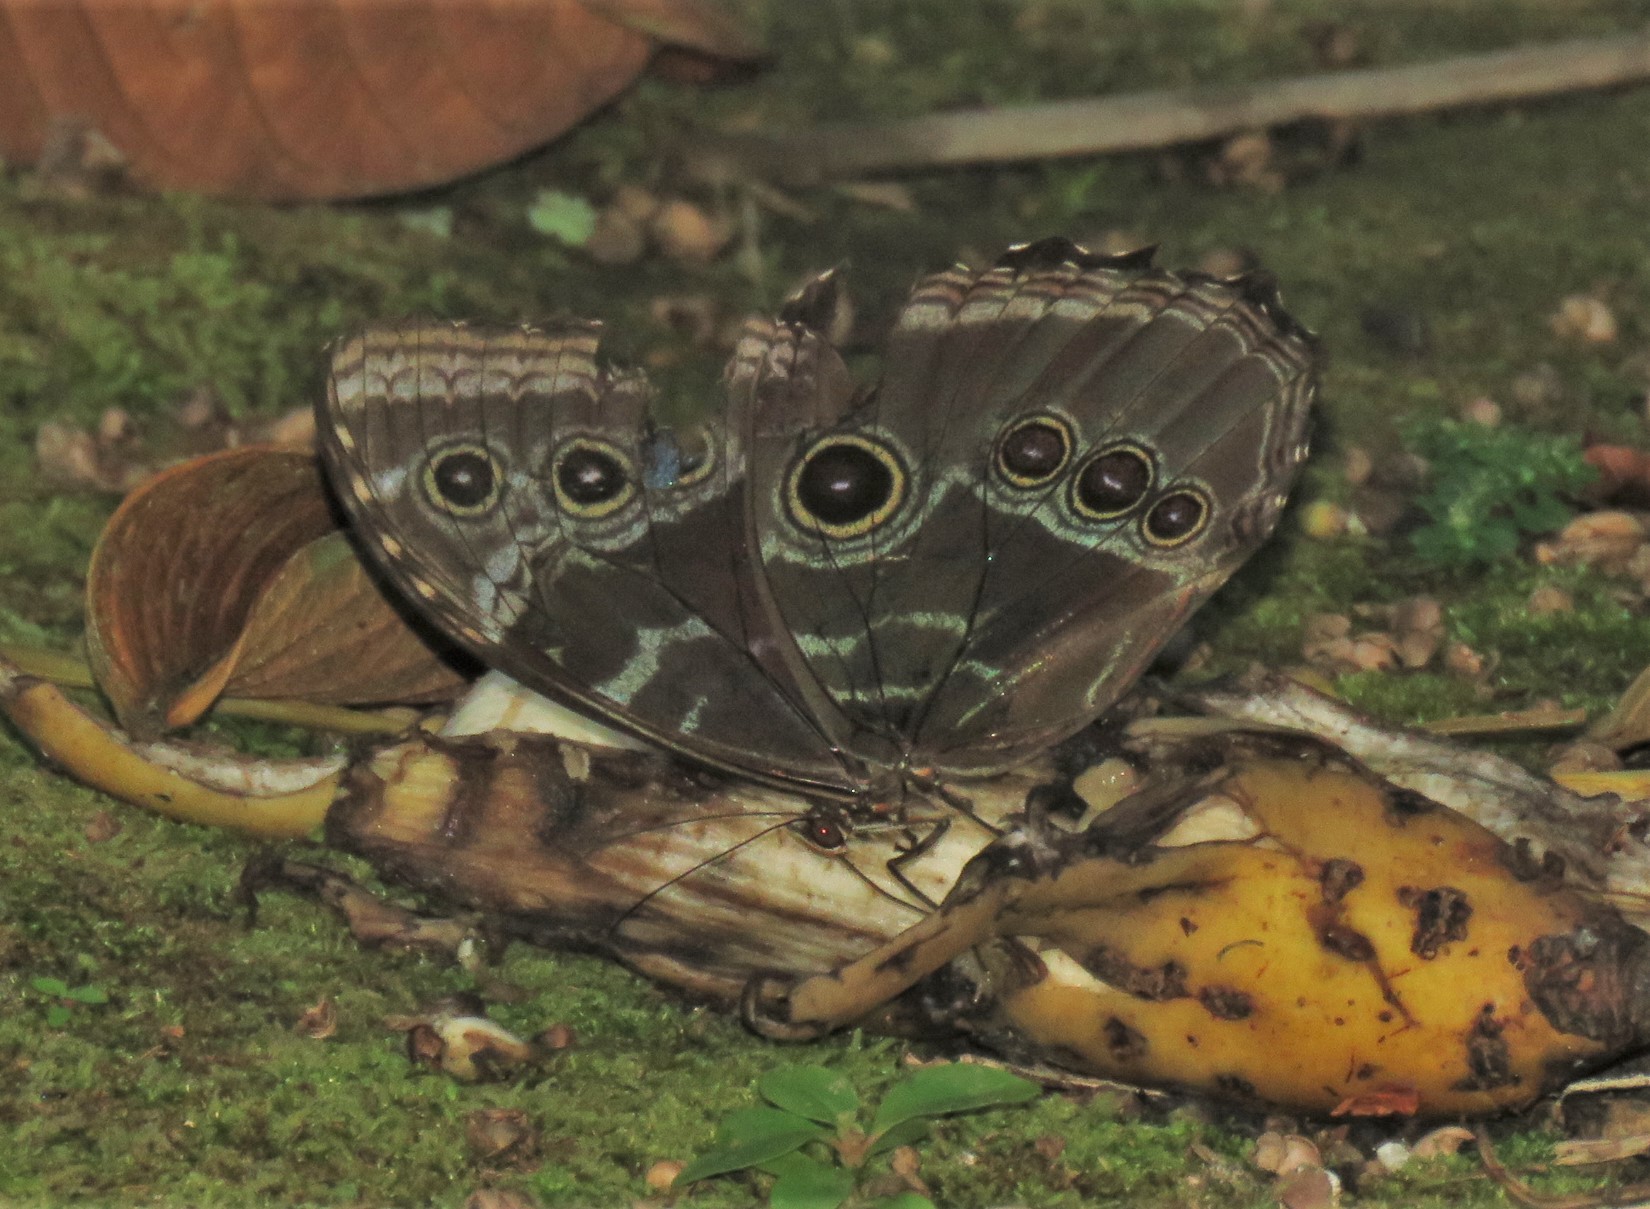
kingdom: Animalia
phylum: Arthropoda
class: Insecta
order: Lepidoptera
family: Nymphalidae
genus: Morpho
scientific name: Morpho helenor
